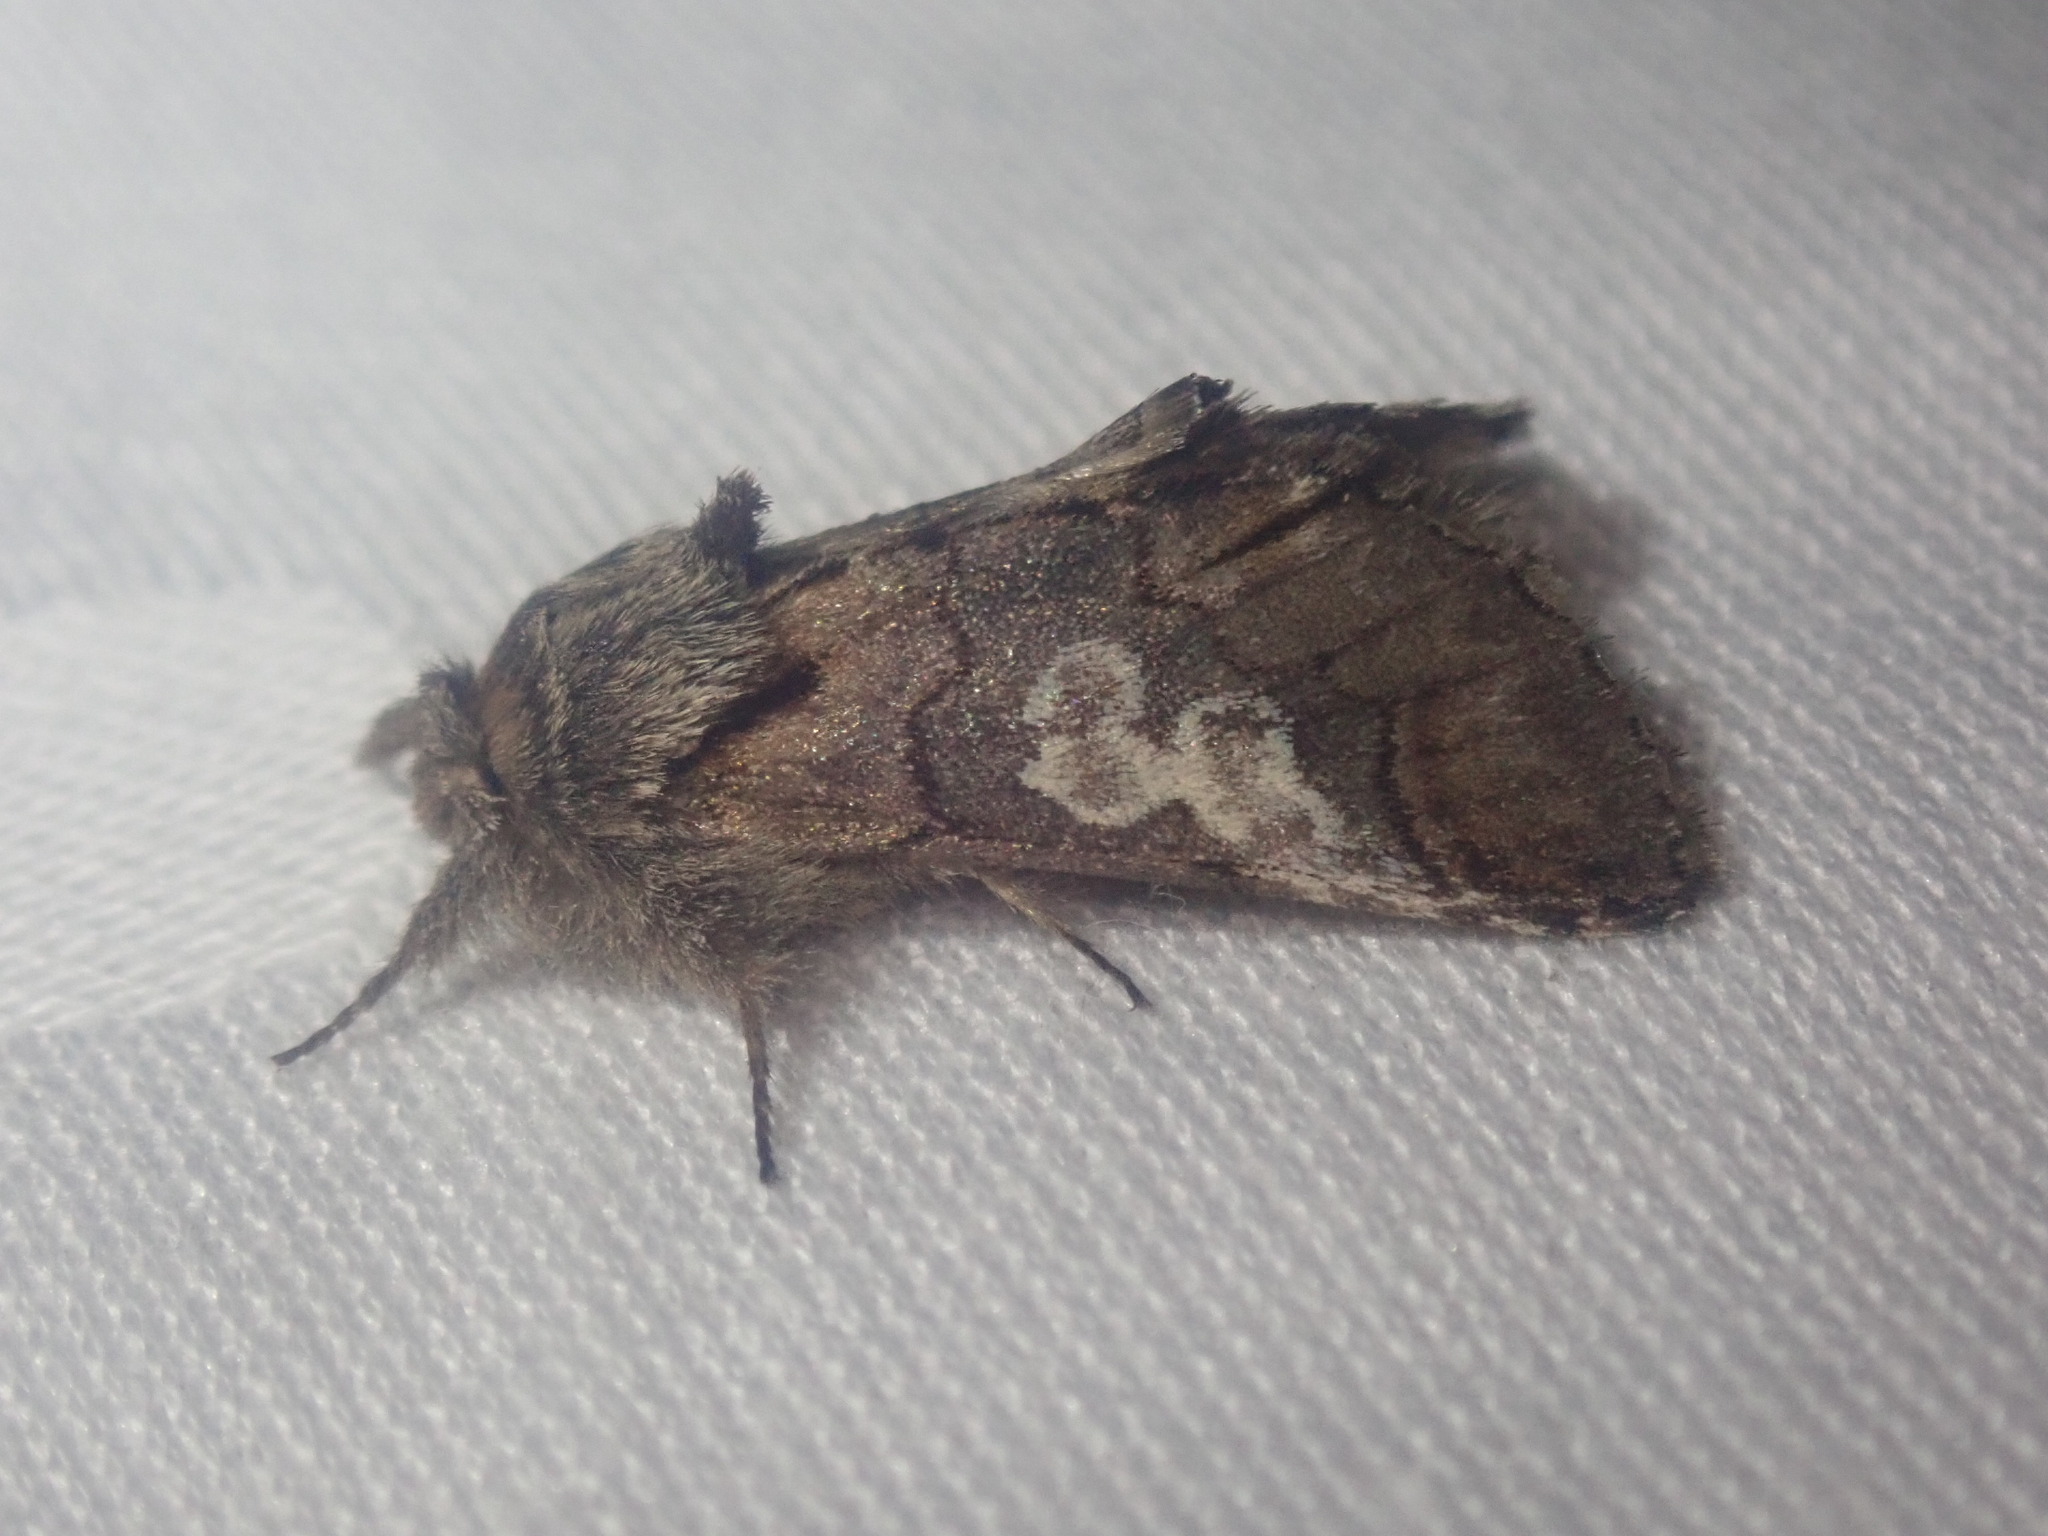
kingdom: Animalia
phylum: Arthropoda
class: Insecta
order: Lepidoptera
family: Noctuidae
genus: Diloba
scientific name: Diloba caeruleocephala
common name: Figure of eight
